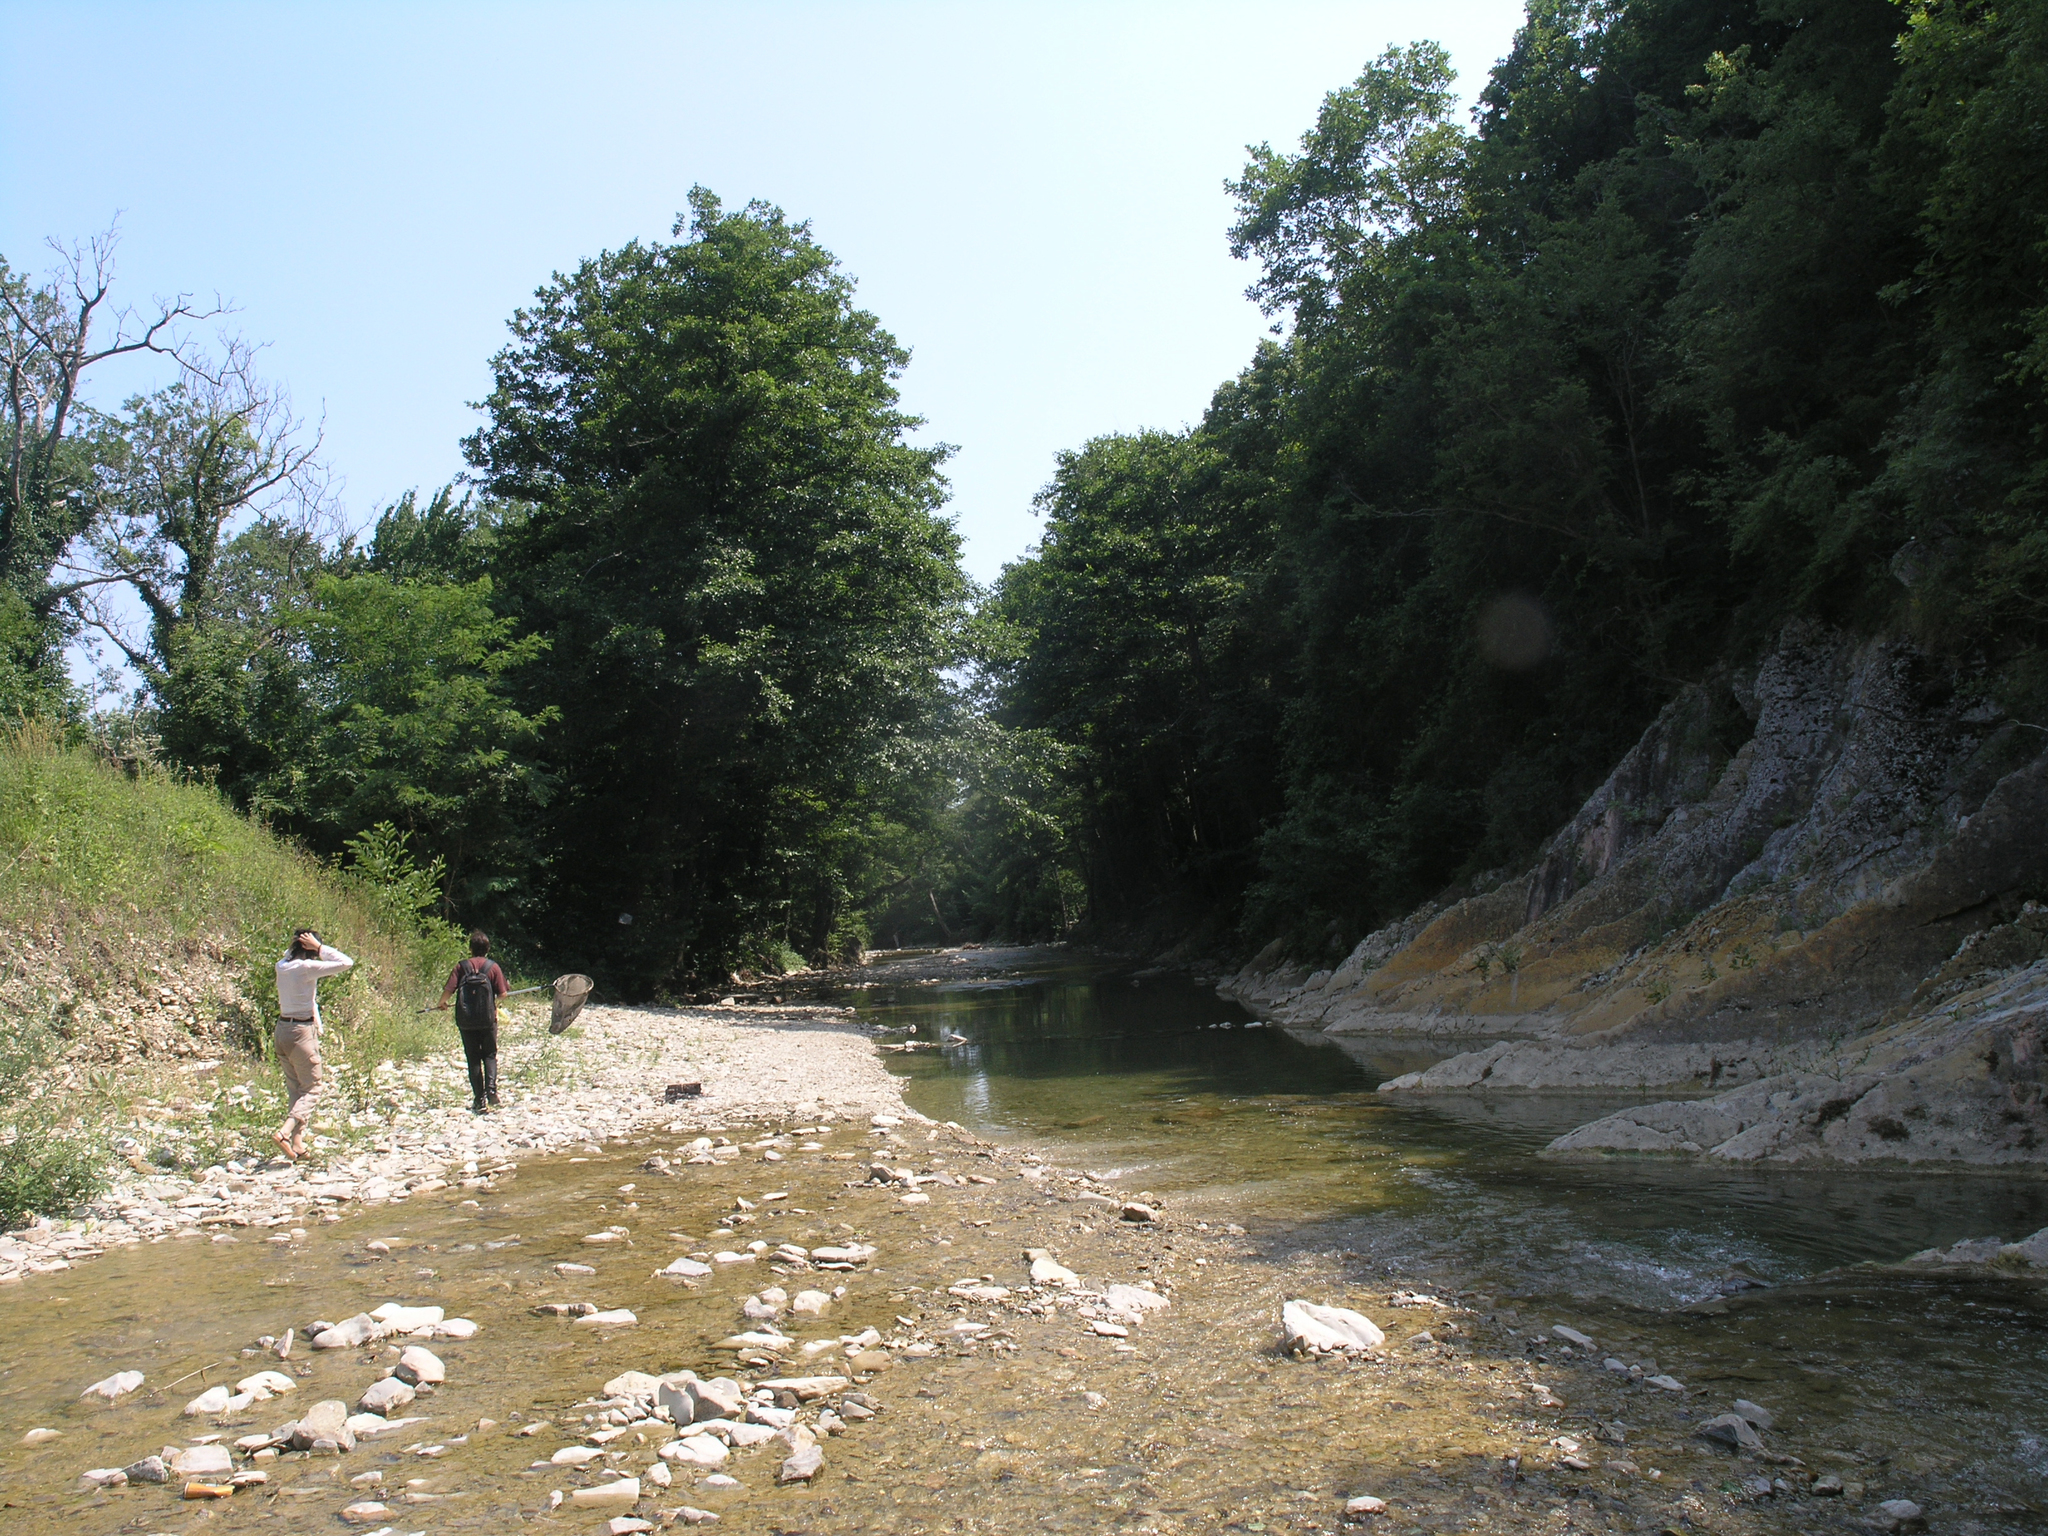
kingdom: Plantae
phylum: Tracheophyta
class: Magnoliopsida
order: Fagales
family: Betulaceae
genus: Alnus
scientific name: Alnus glutinosa
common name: Black alder
